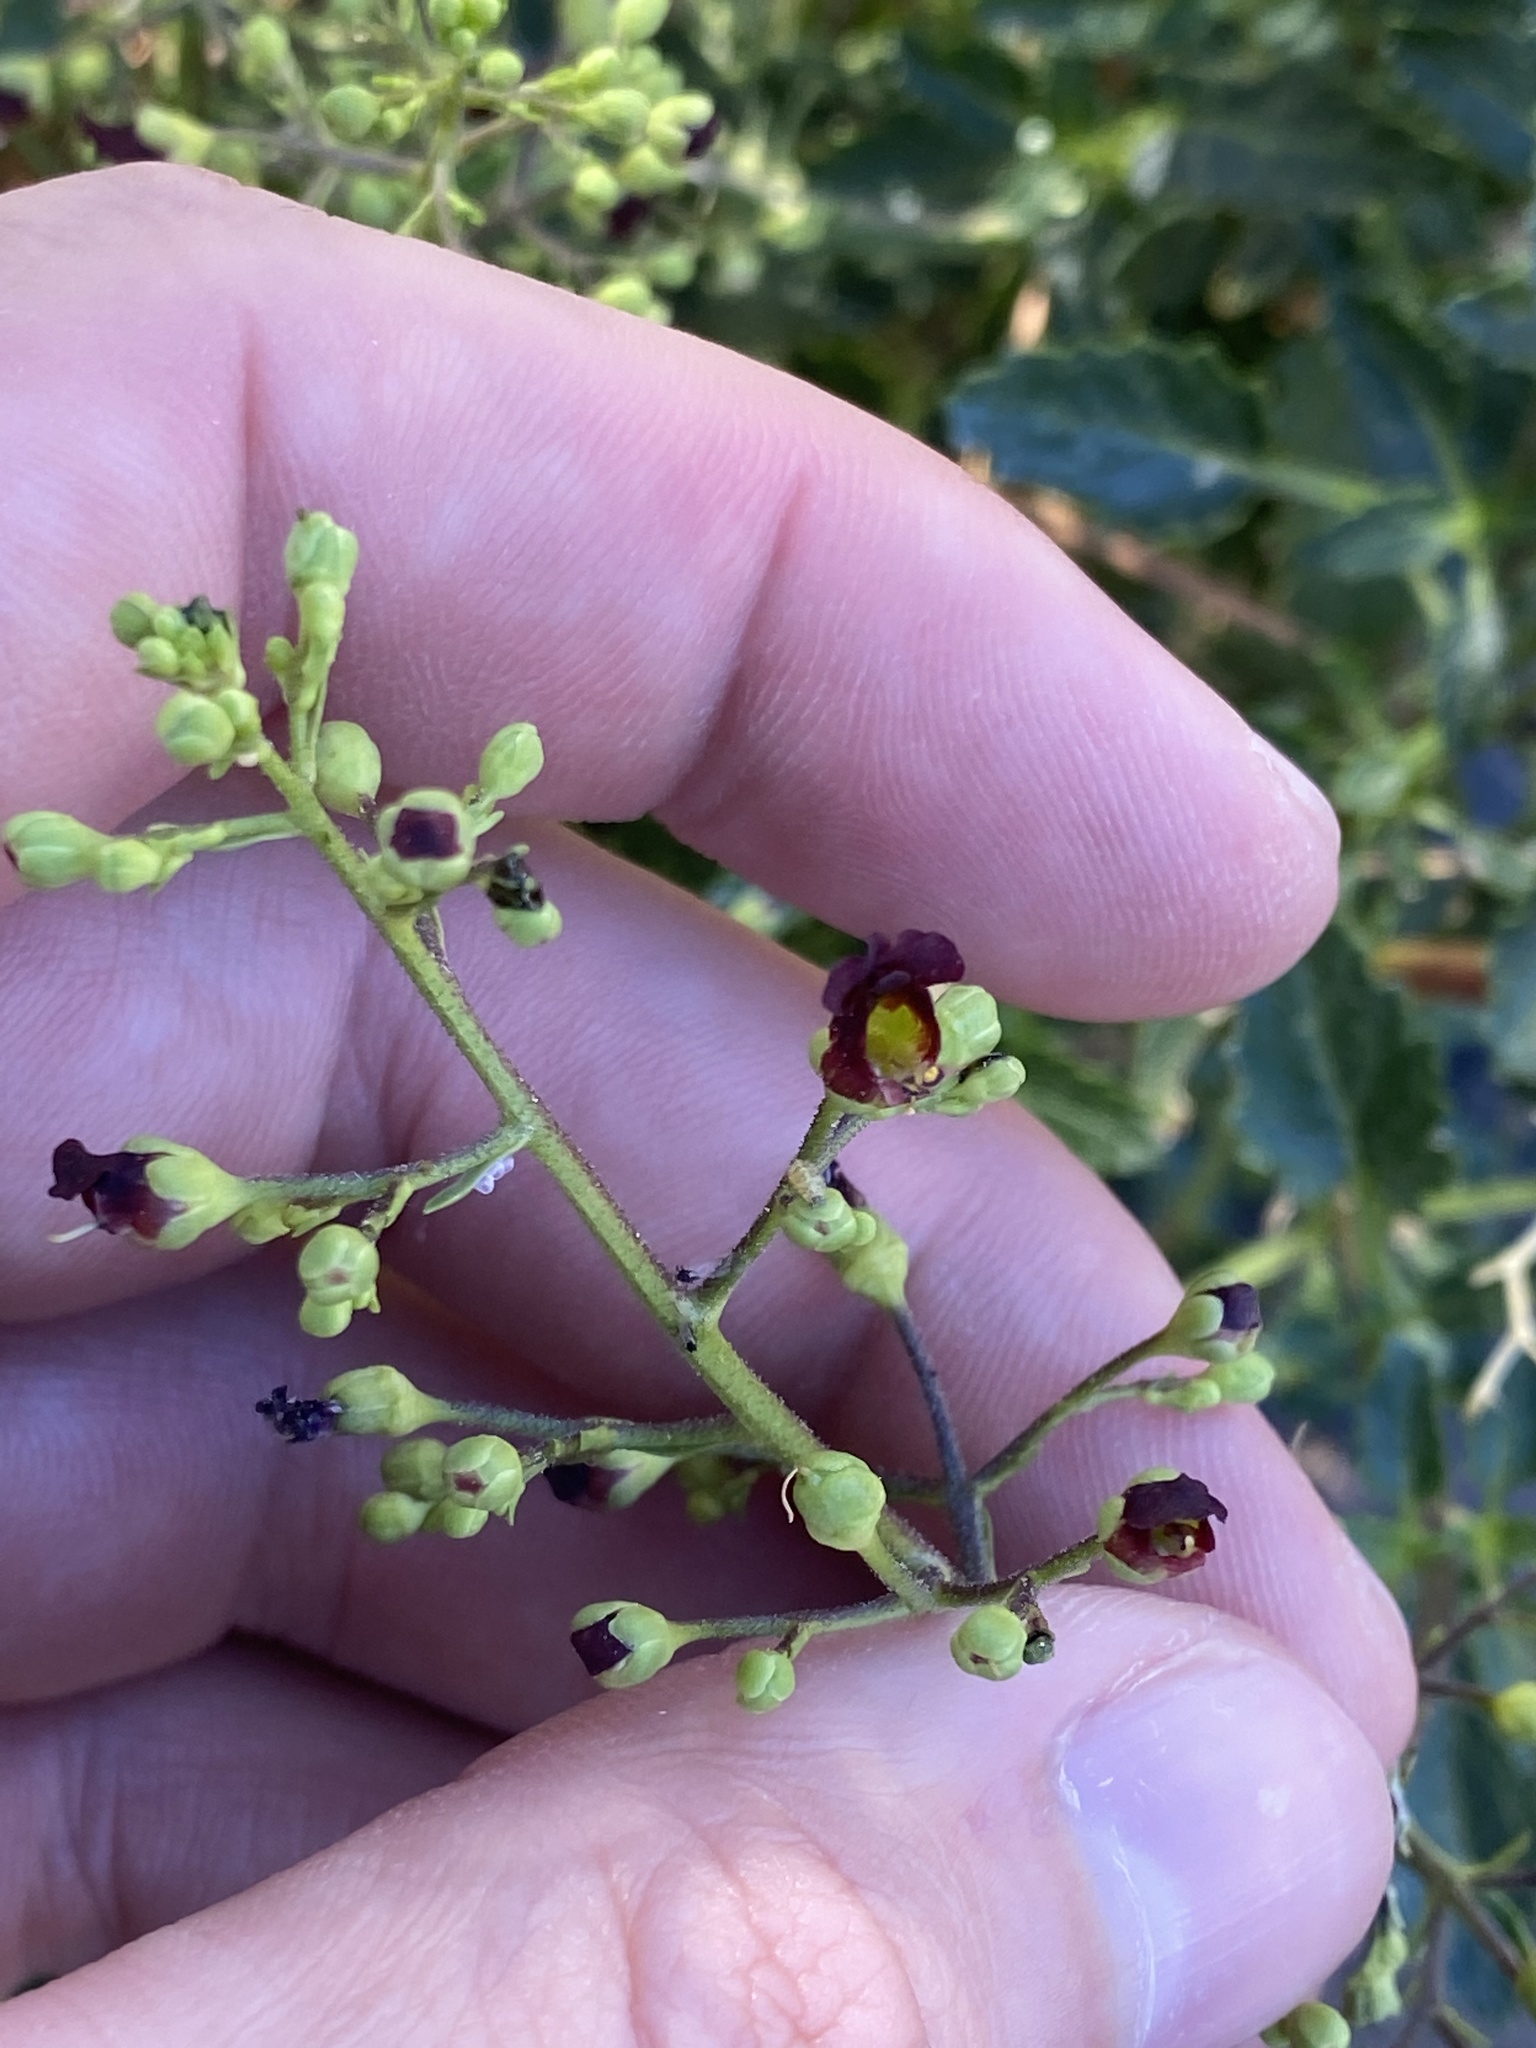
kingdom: Plantae
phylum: Tracheophyta
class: Magnoliopsida
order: Lamiales
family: Scrophulariaceae
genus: Scrophularia
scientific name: Scrophularia glabrata
